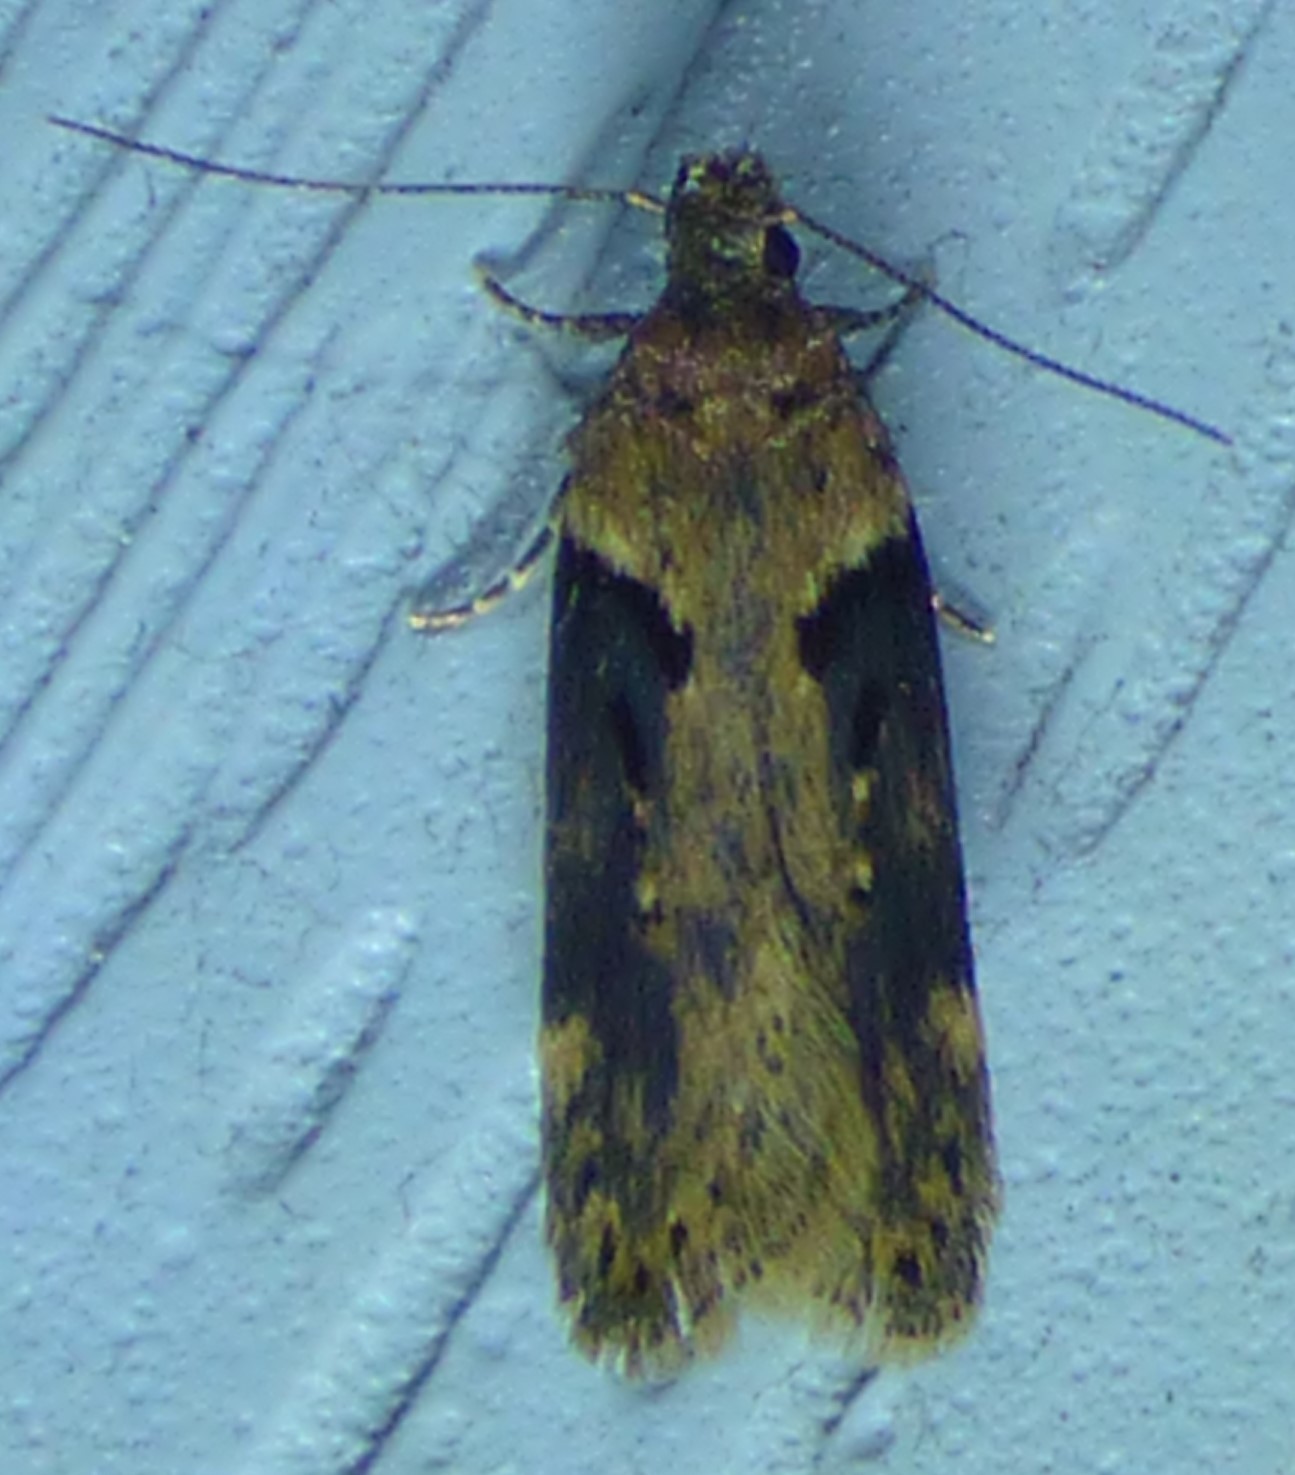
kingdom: Animalia
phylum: Arthropoda
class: Insecta
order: Lepidoptera
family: Gelechiidae
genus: Chionodes
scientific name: Chionodes mediofuscella
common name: Black-smudged chionodes moth
